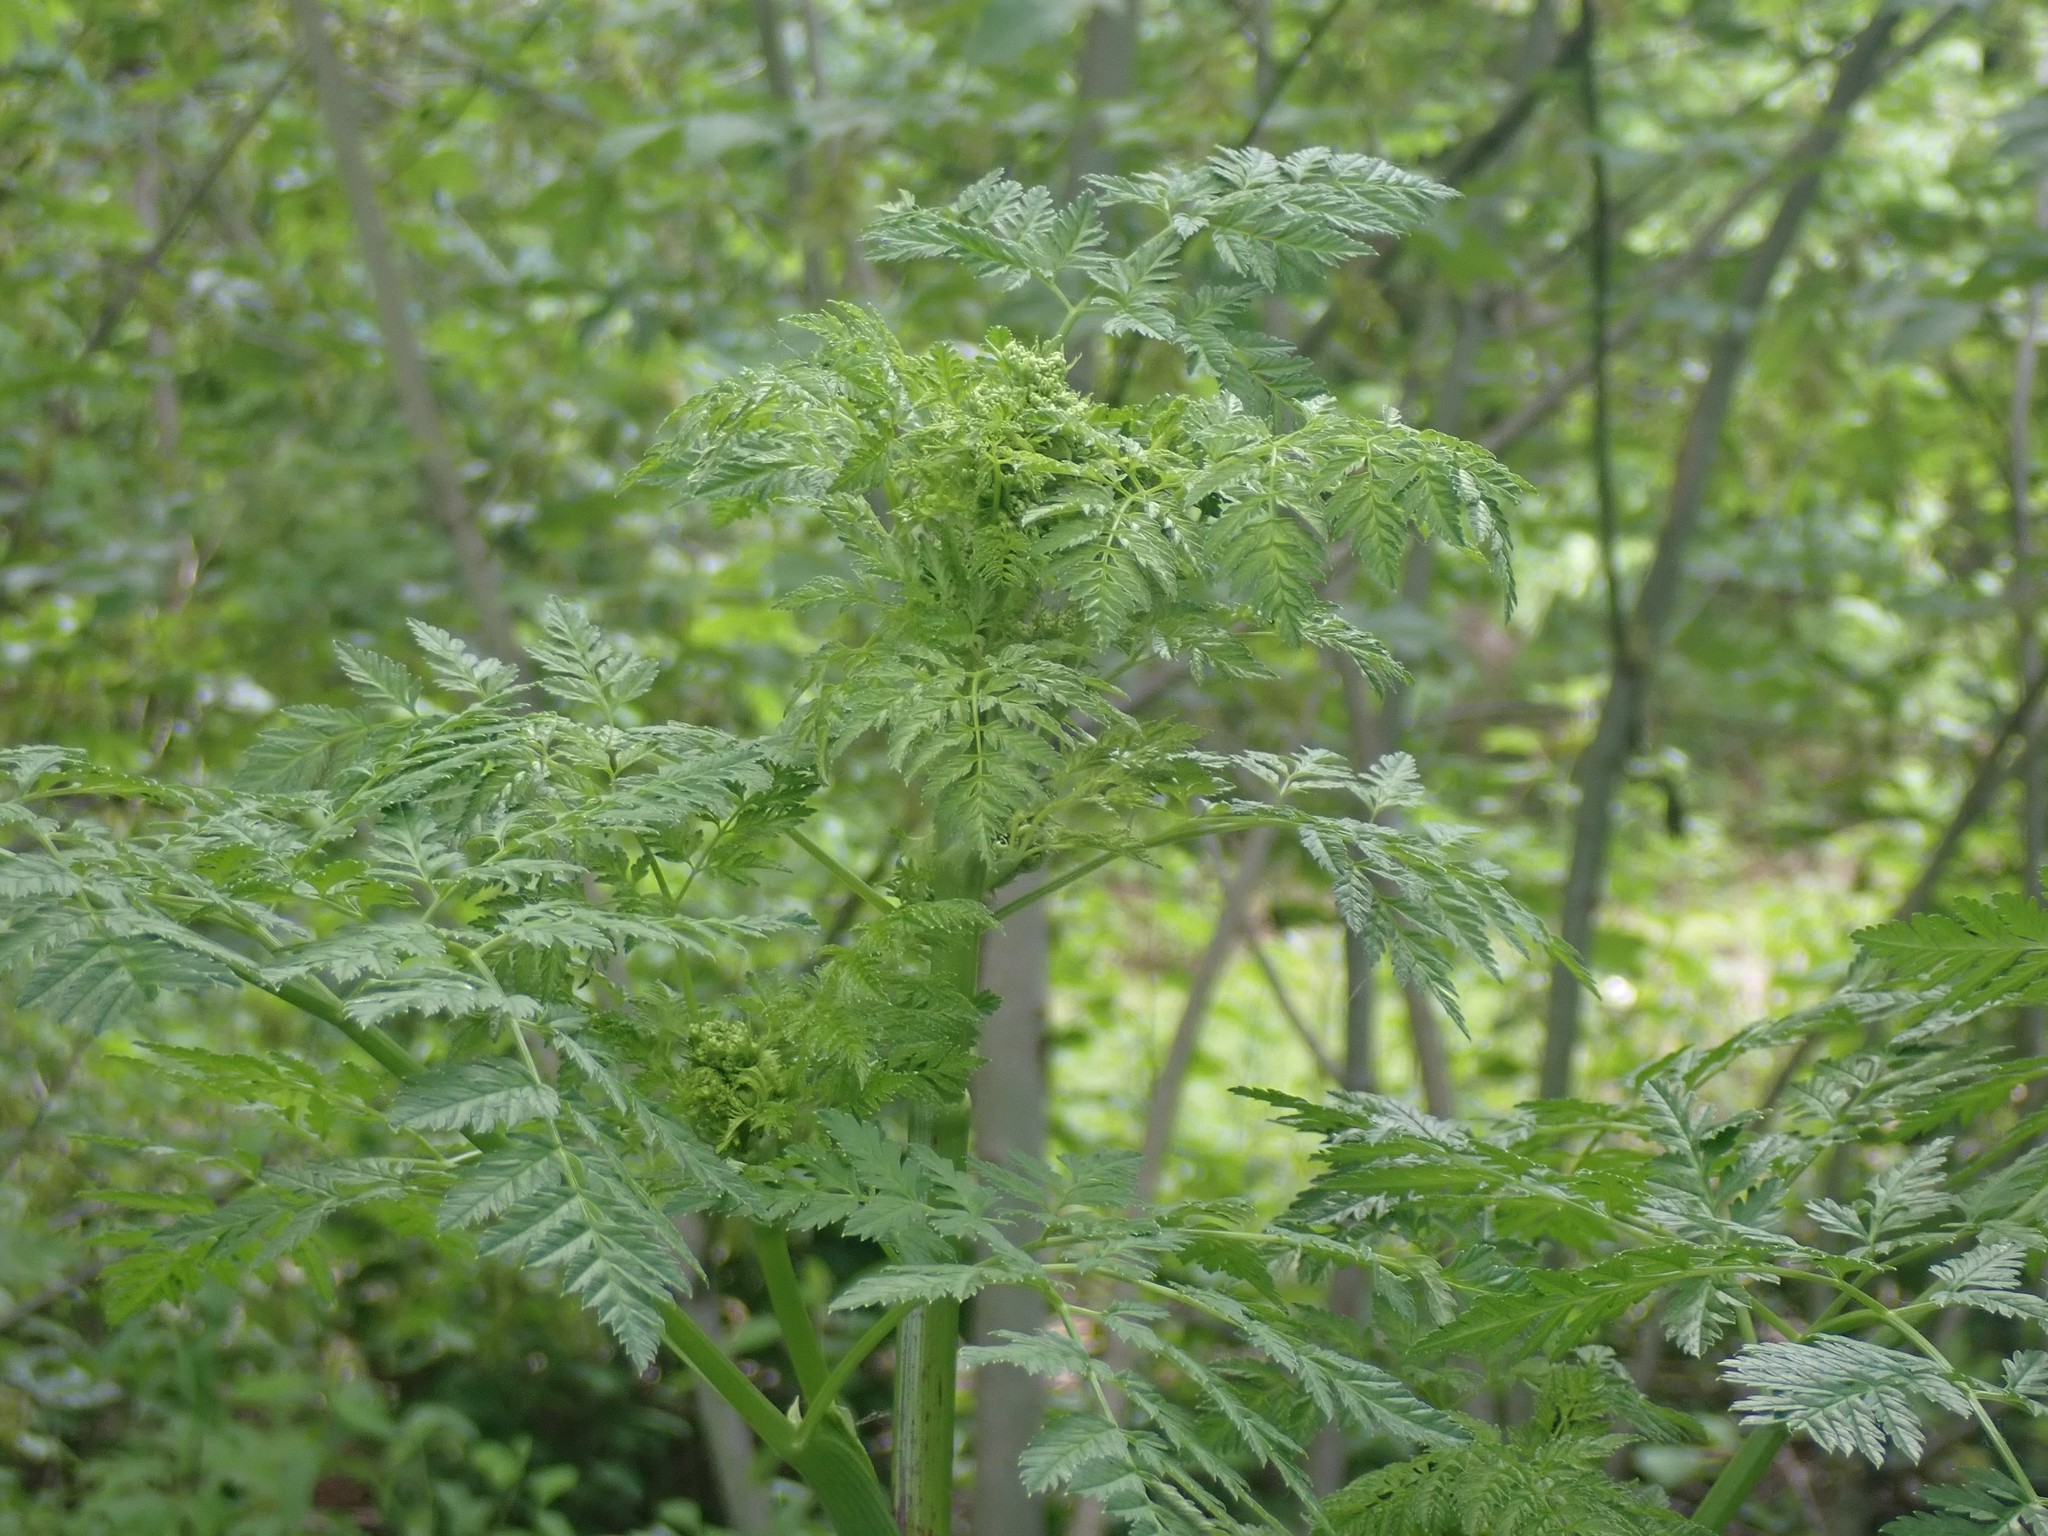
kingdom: Plantae
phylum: Tracheophyta
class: Magnoliopsida
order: Apiales
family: Apiaceae
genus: Conium
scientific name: Conium maculatum
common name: Hemlock
